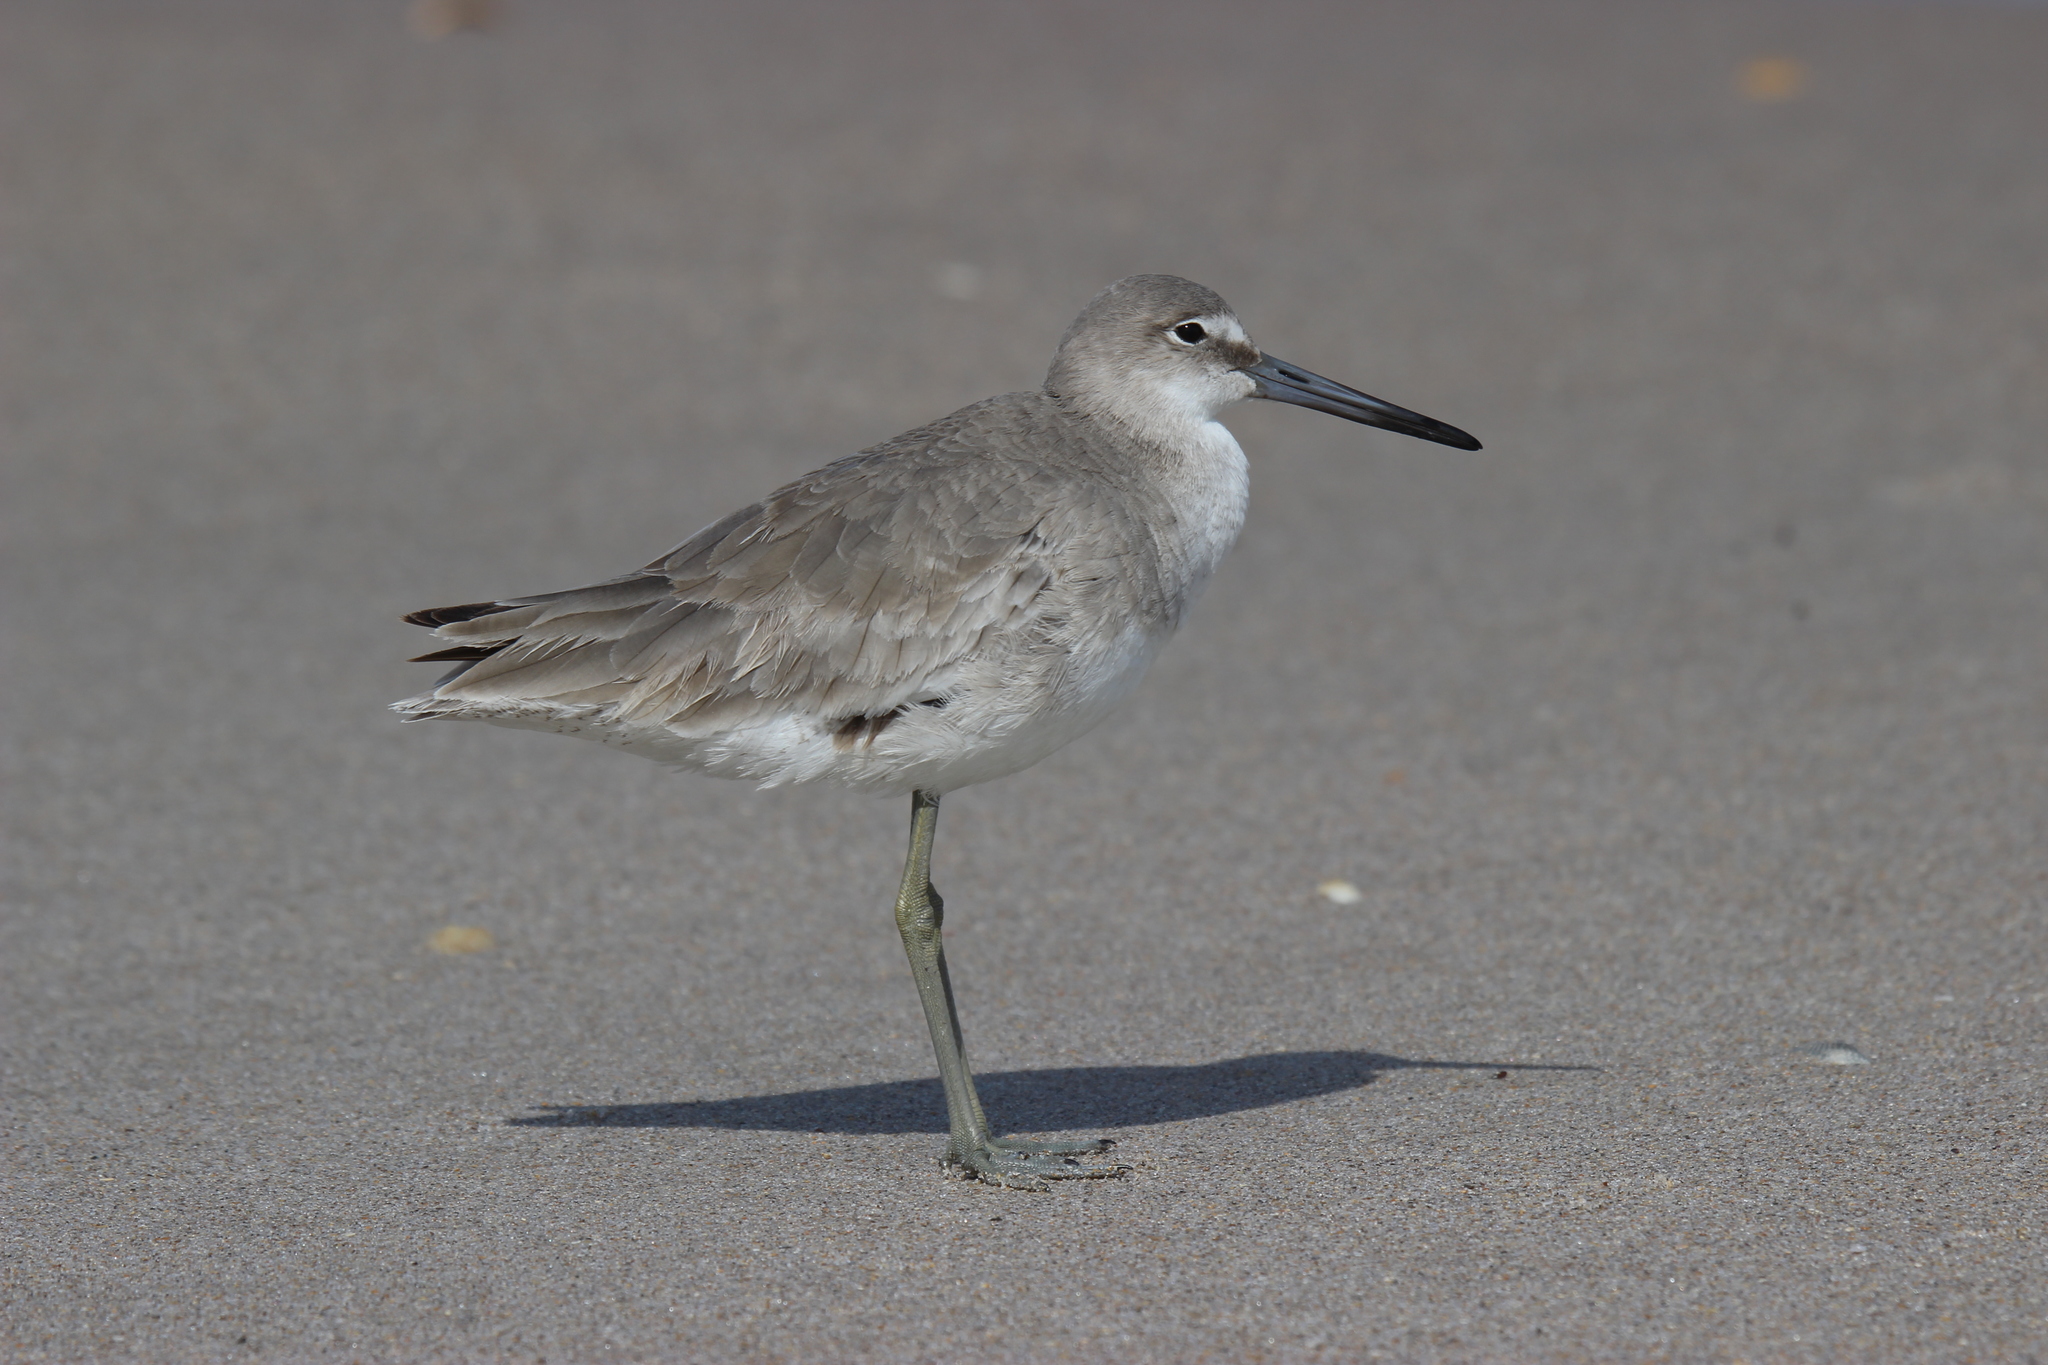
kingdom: Animalia
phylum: Chordata
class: Aves
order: Charadriiformes
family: Scolopacidae
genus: Tringa
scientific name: Tringa semipalmata
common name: Willet
